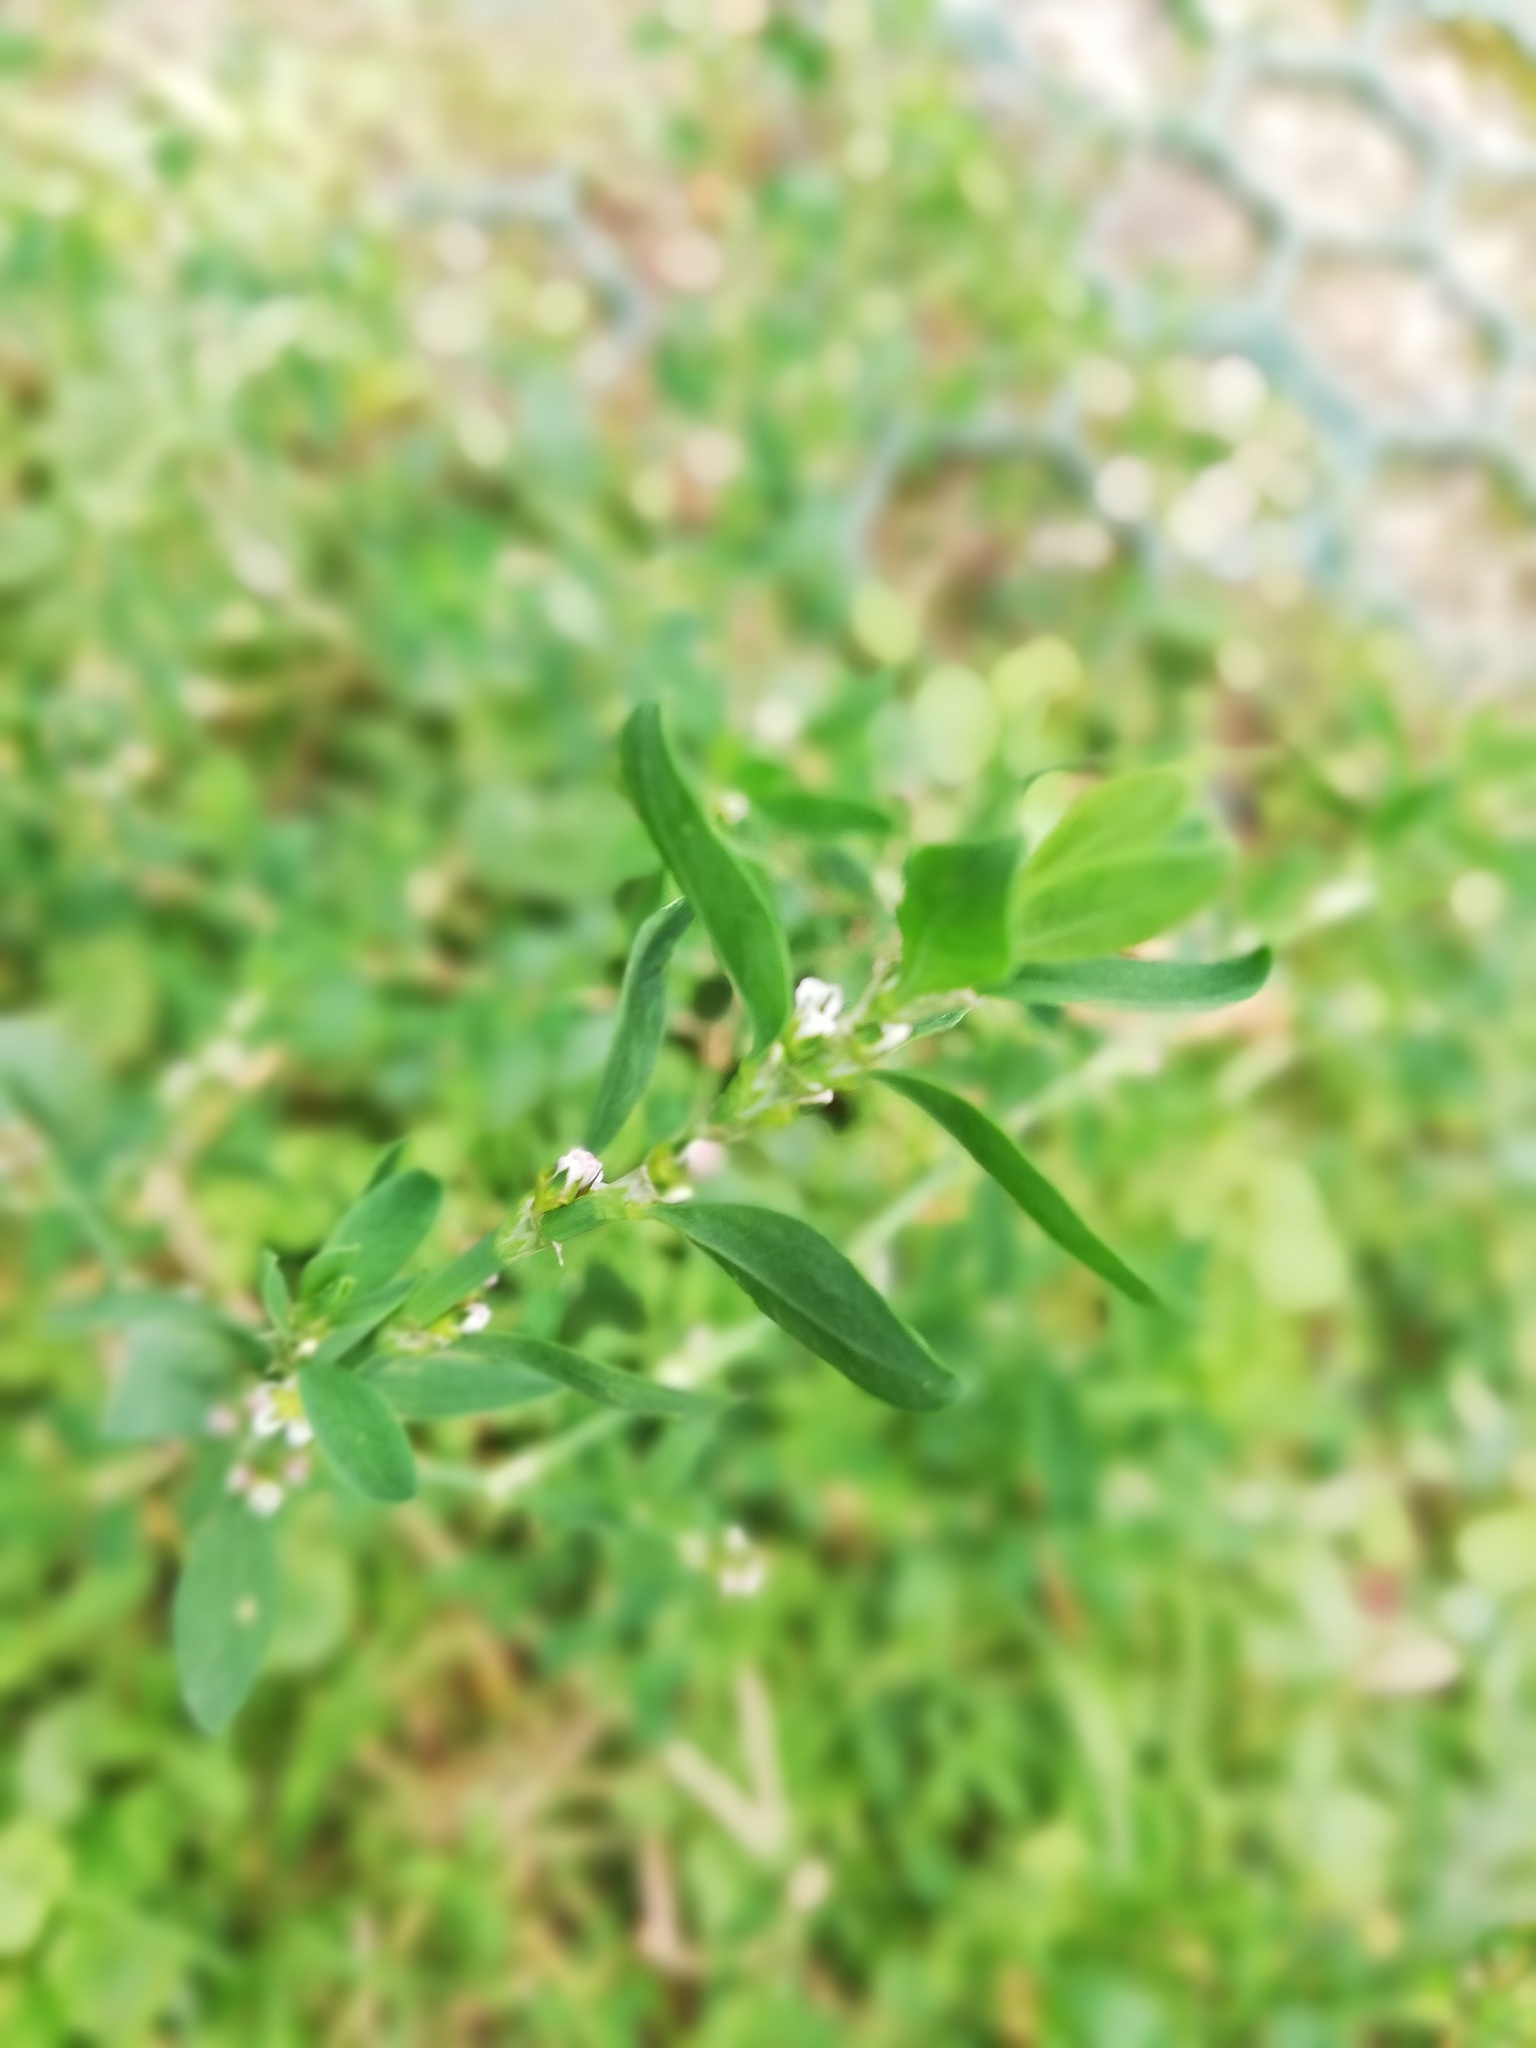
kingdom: Plantae
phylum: Tracheophyta
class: Magnoliopsida
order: Caryophyllales
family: Polygonaceae
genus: Polygonum
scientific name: Polygonum aviculare
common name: Prostrate knotweed
